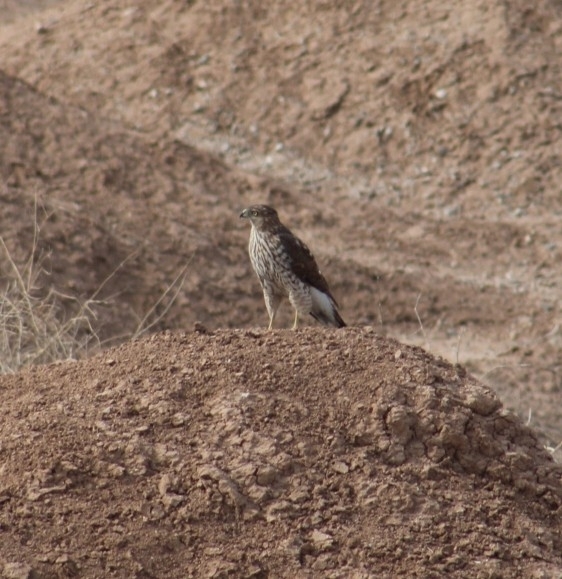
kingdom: Animalia
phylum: Chordata
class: Aves
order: Accipitriformes
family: Accipitridae
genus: Accipiter
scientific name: Accipiter cooperii
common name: Cooper's hawk
